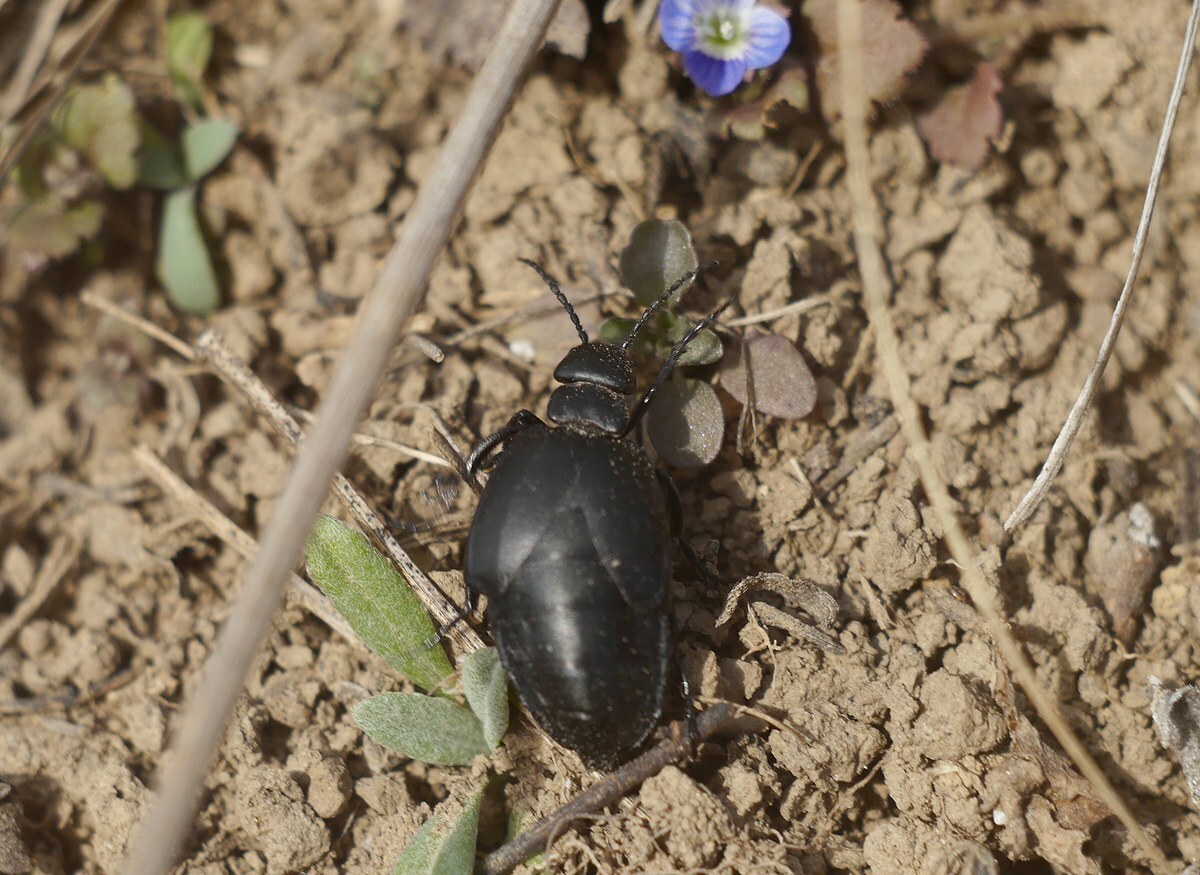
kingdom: Animalia
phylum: Arthropoda
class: Insecta
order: Coleoptera
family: Meloidae
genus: Meloe
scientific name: Meloe uralensis
